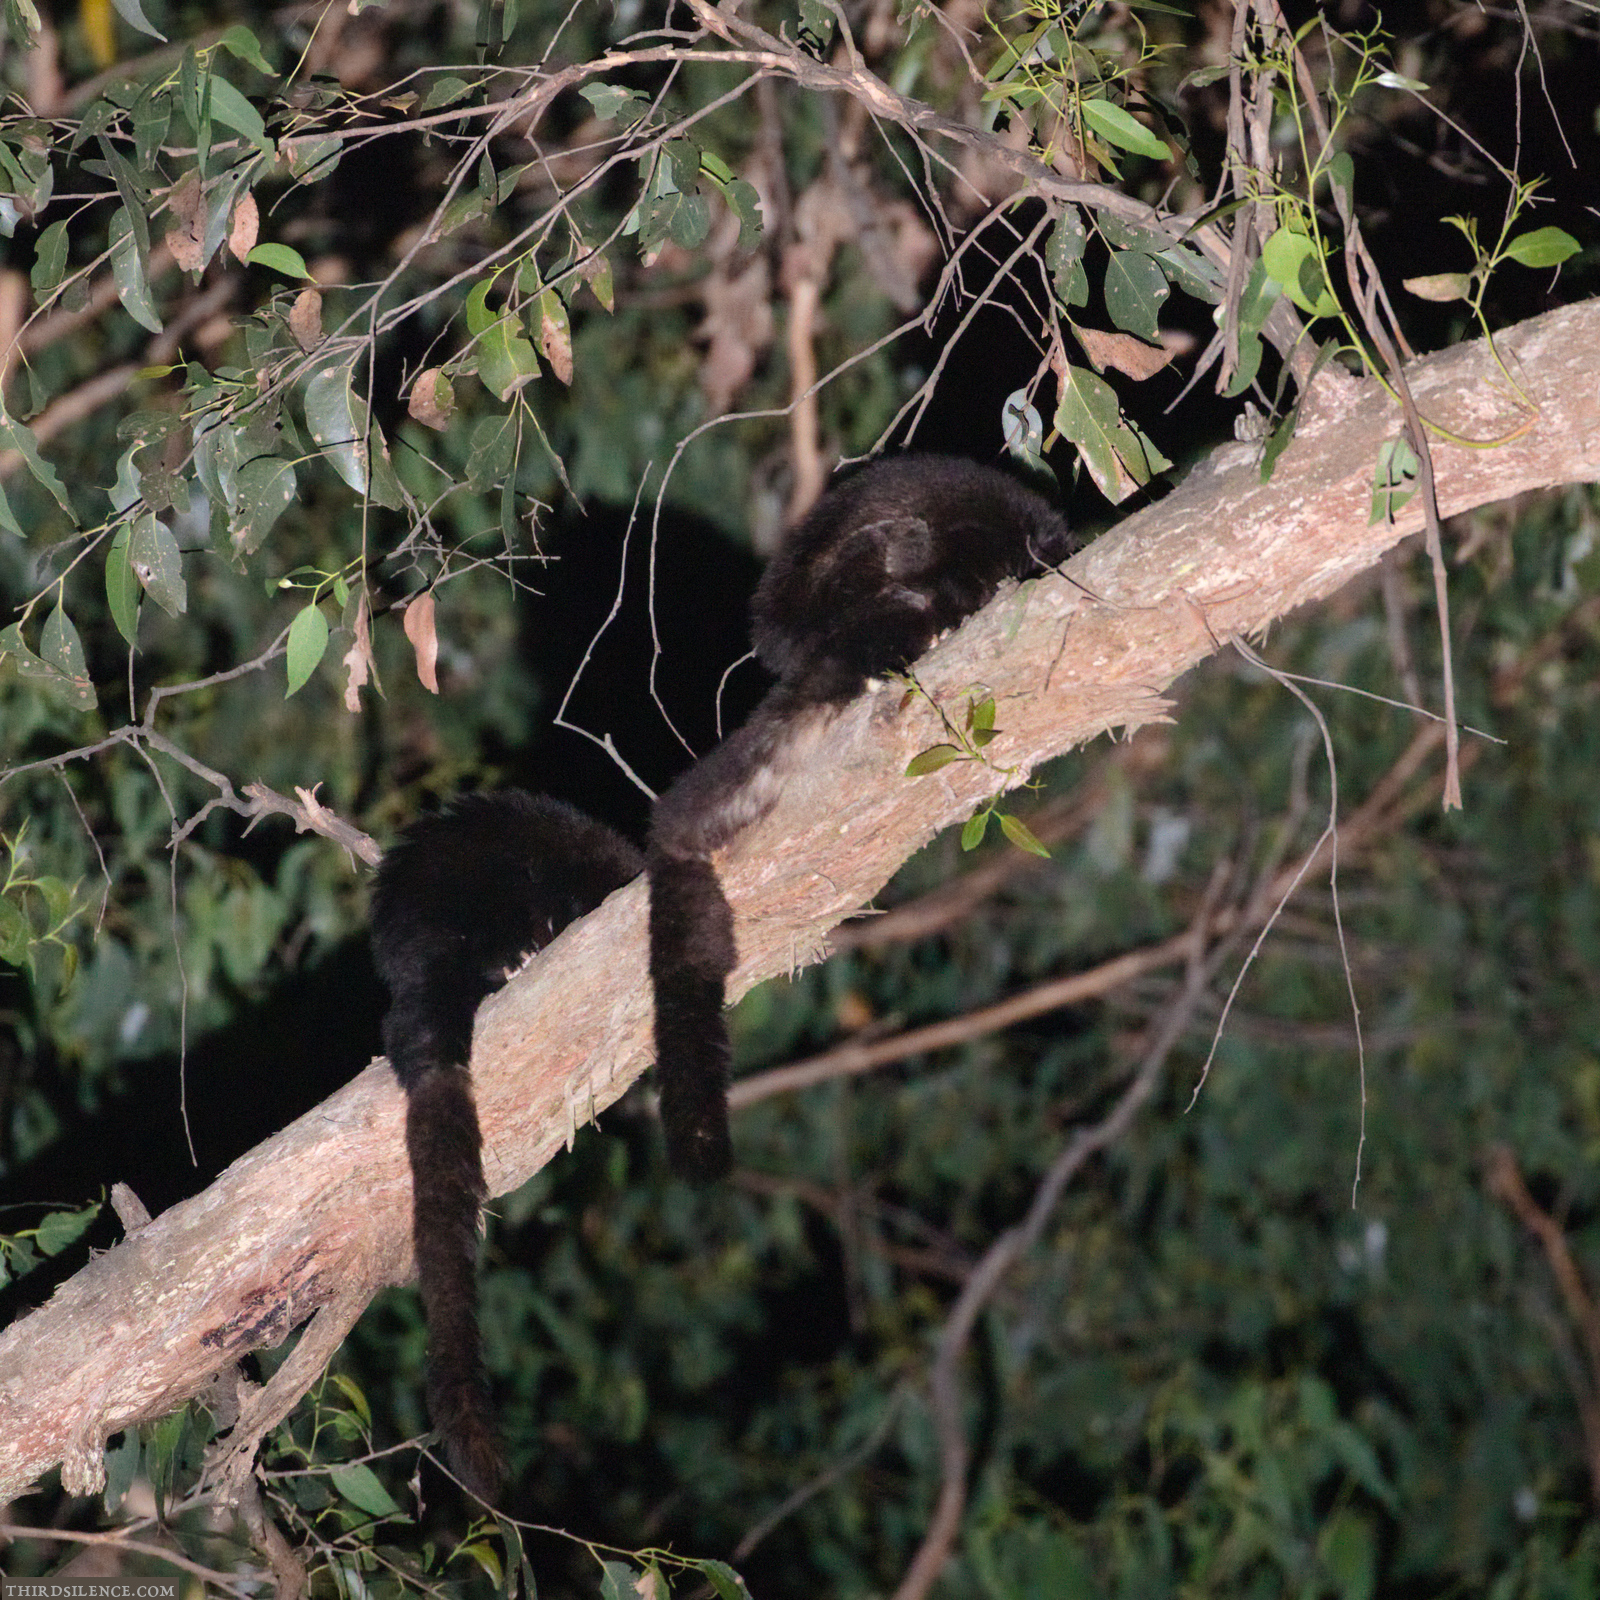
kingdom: Animalia
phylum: Chordata
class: Mammalia
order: Diprotodontia
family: Pseudocheiridae
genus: Petauroides
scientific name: Petauroides volans
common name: Greater glider
